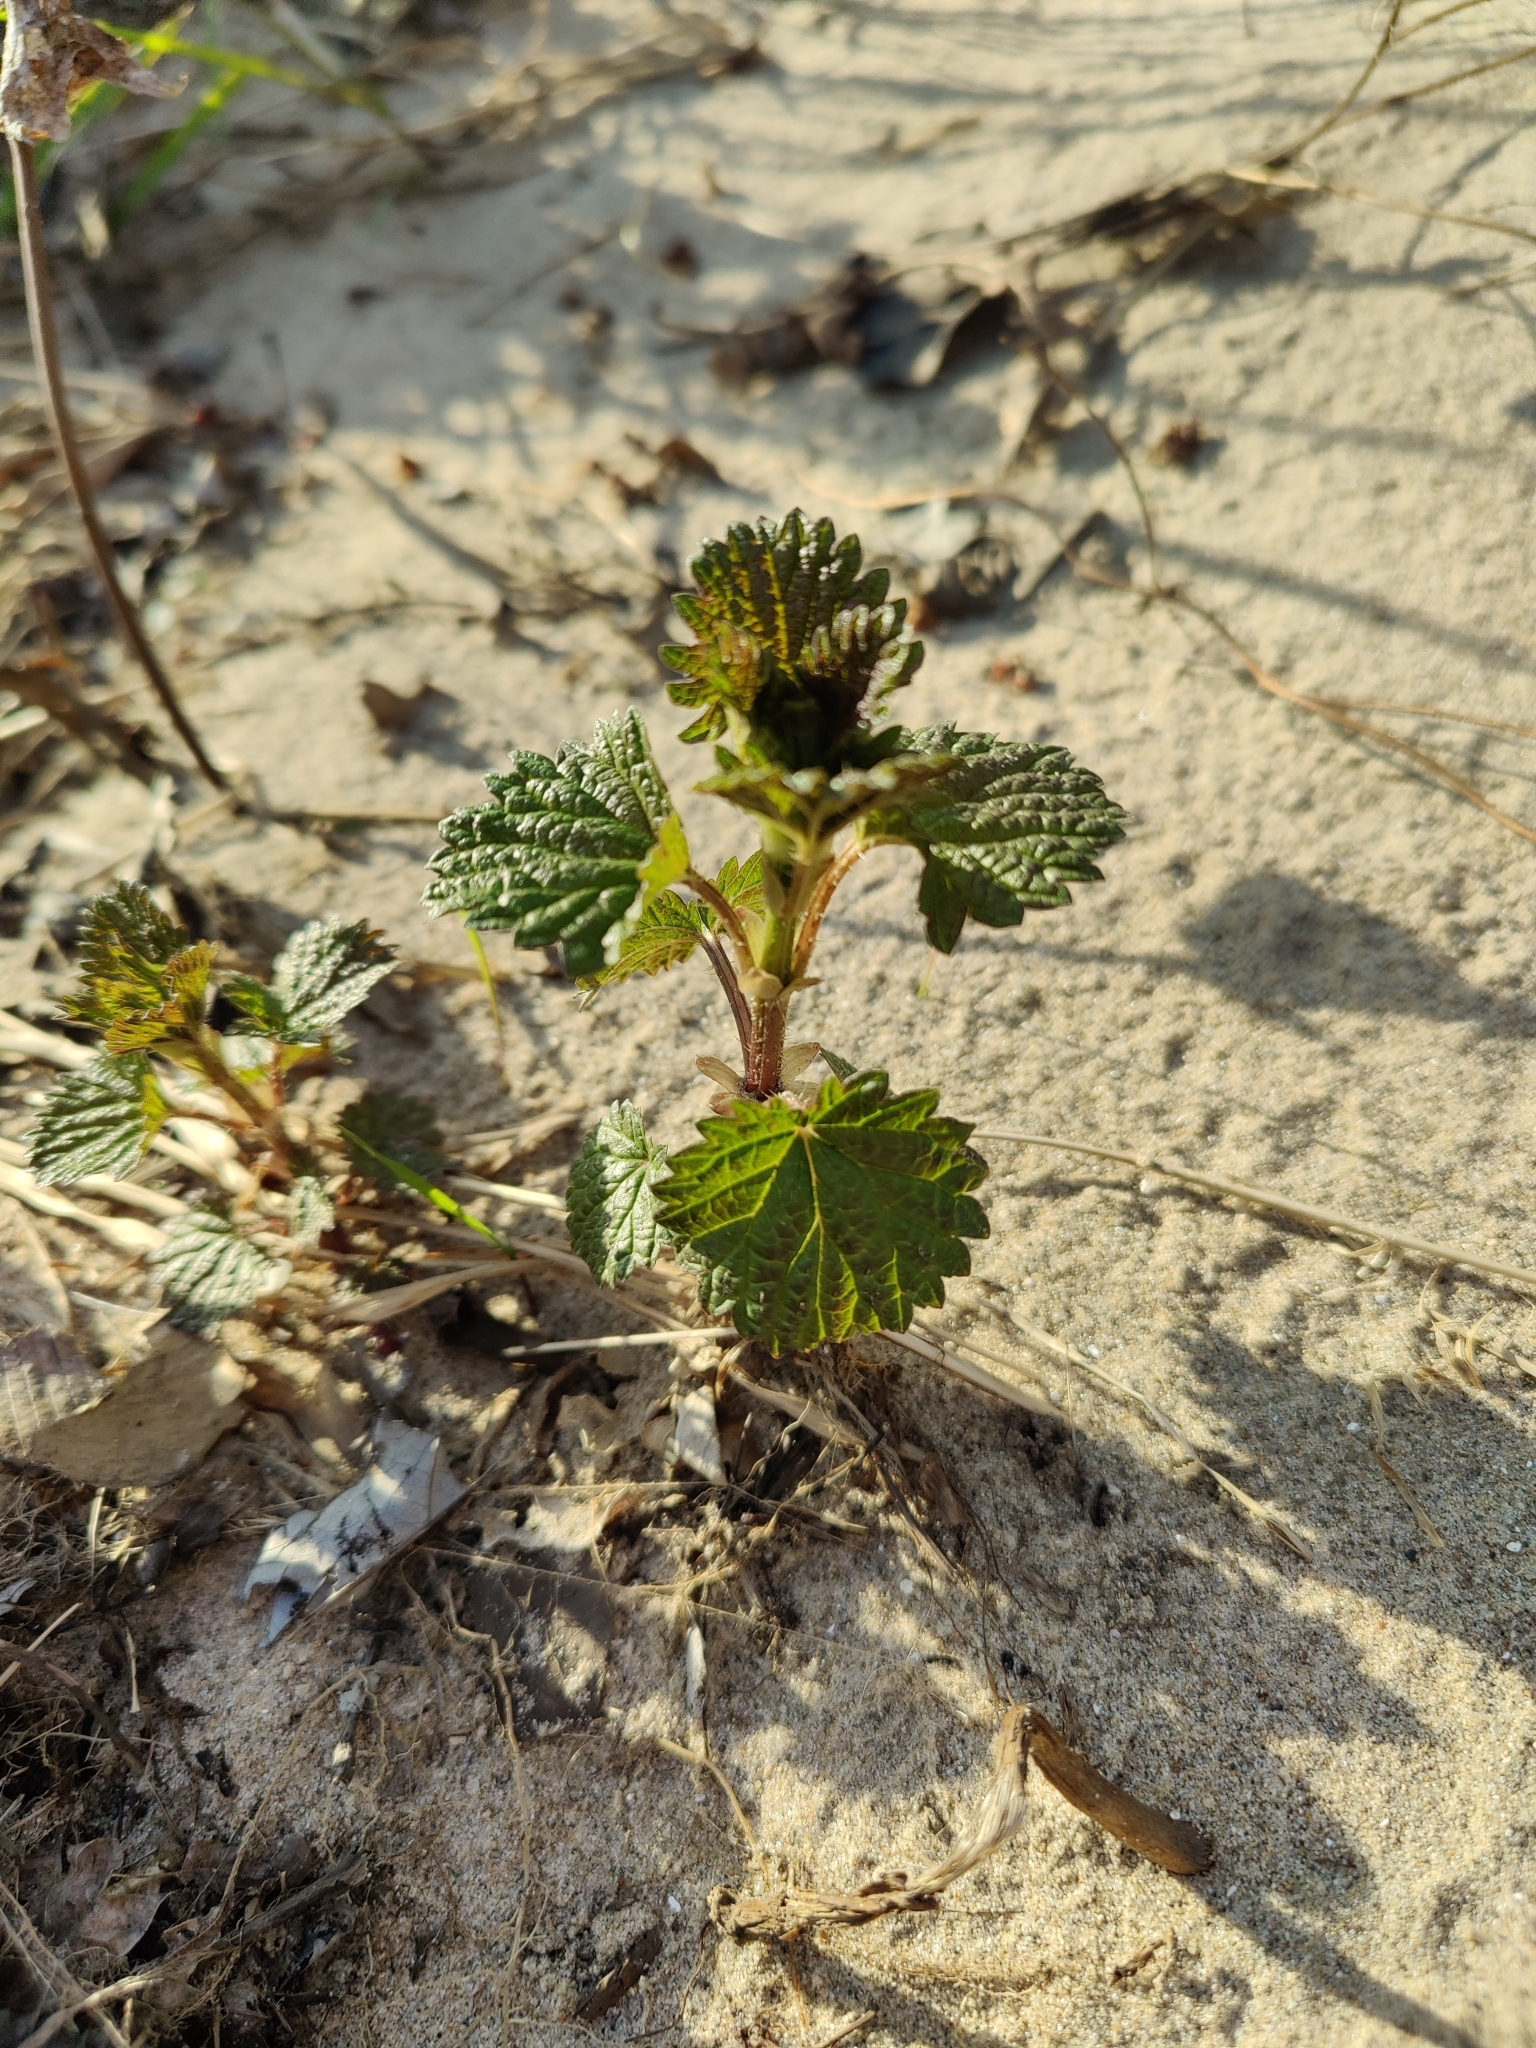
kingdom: Plantae
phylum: Tracheophyta
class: Magnoliopsida
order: Rosales
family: Urticaceae
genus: Urtica
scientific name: Urtica gracilis
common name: Slender stinging nettle
